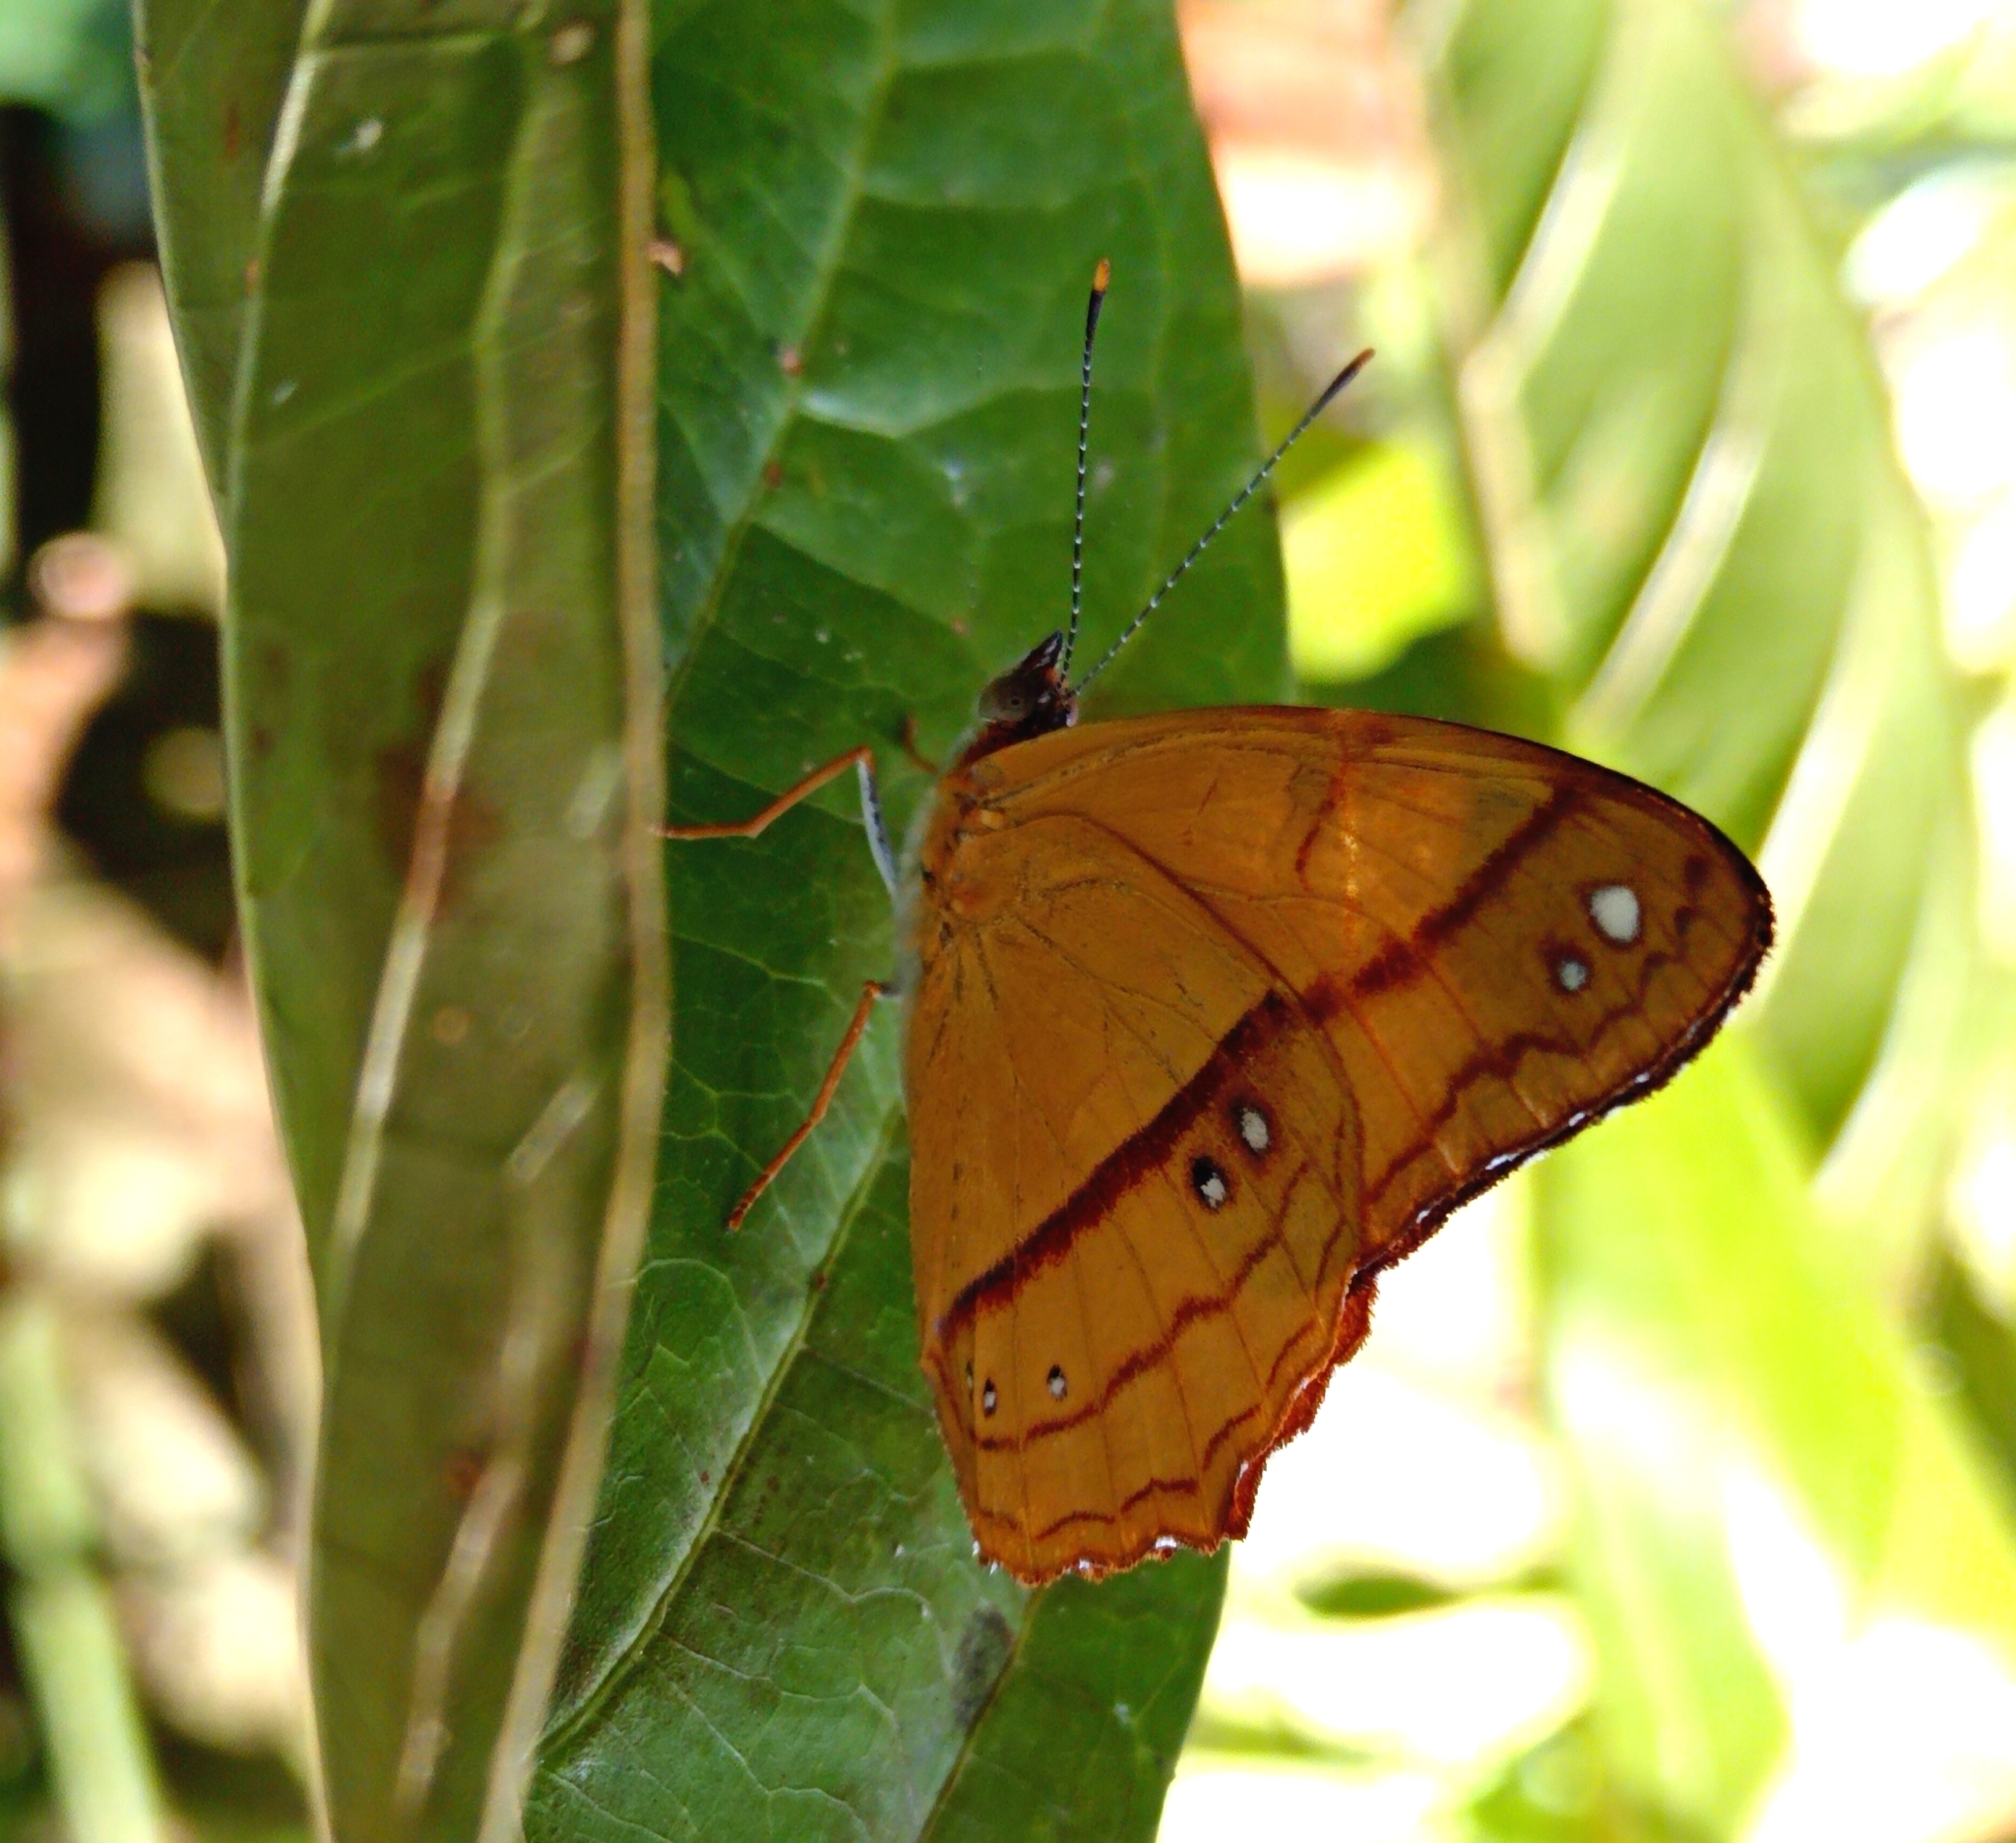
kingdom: Animalia
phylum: Arthropoda
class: Insecta
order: Lepidoptera
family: Nymphalidae
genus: Nica
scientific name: Nica flavilla
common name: Mandarin nica
